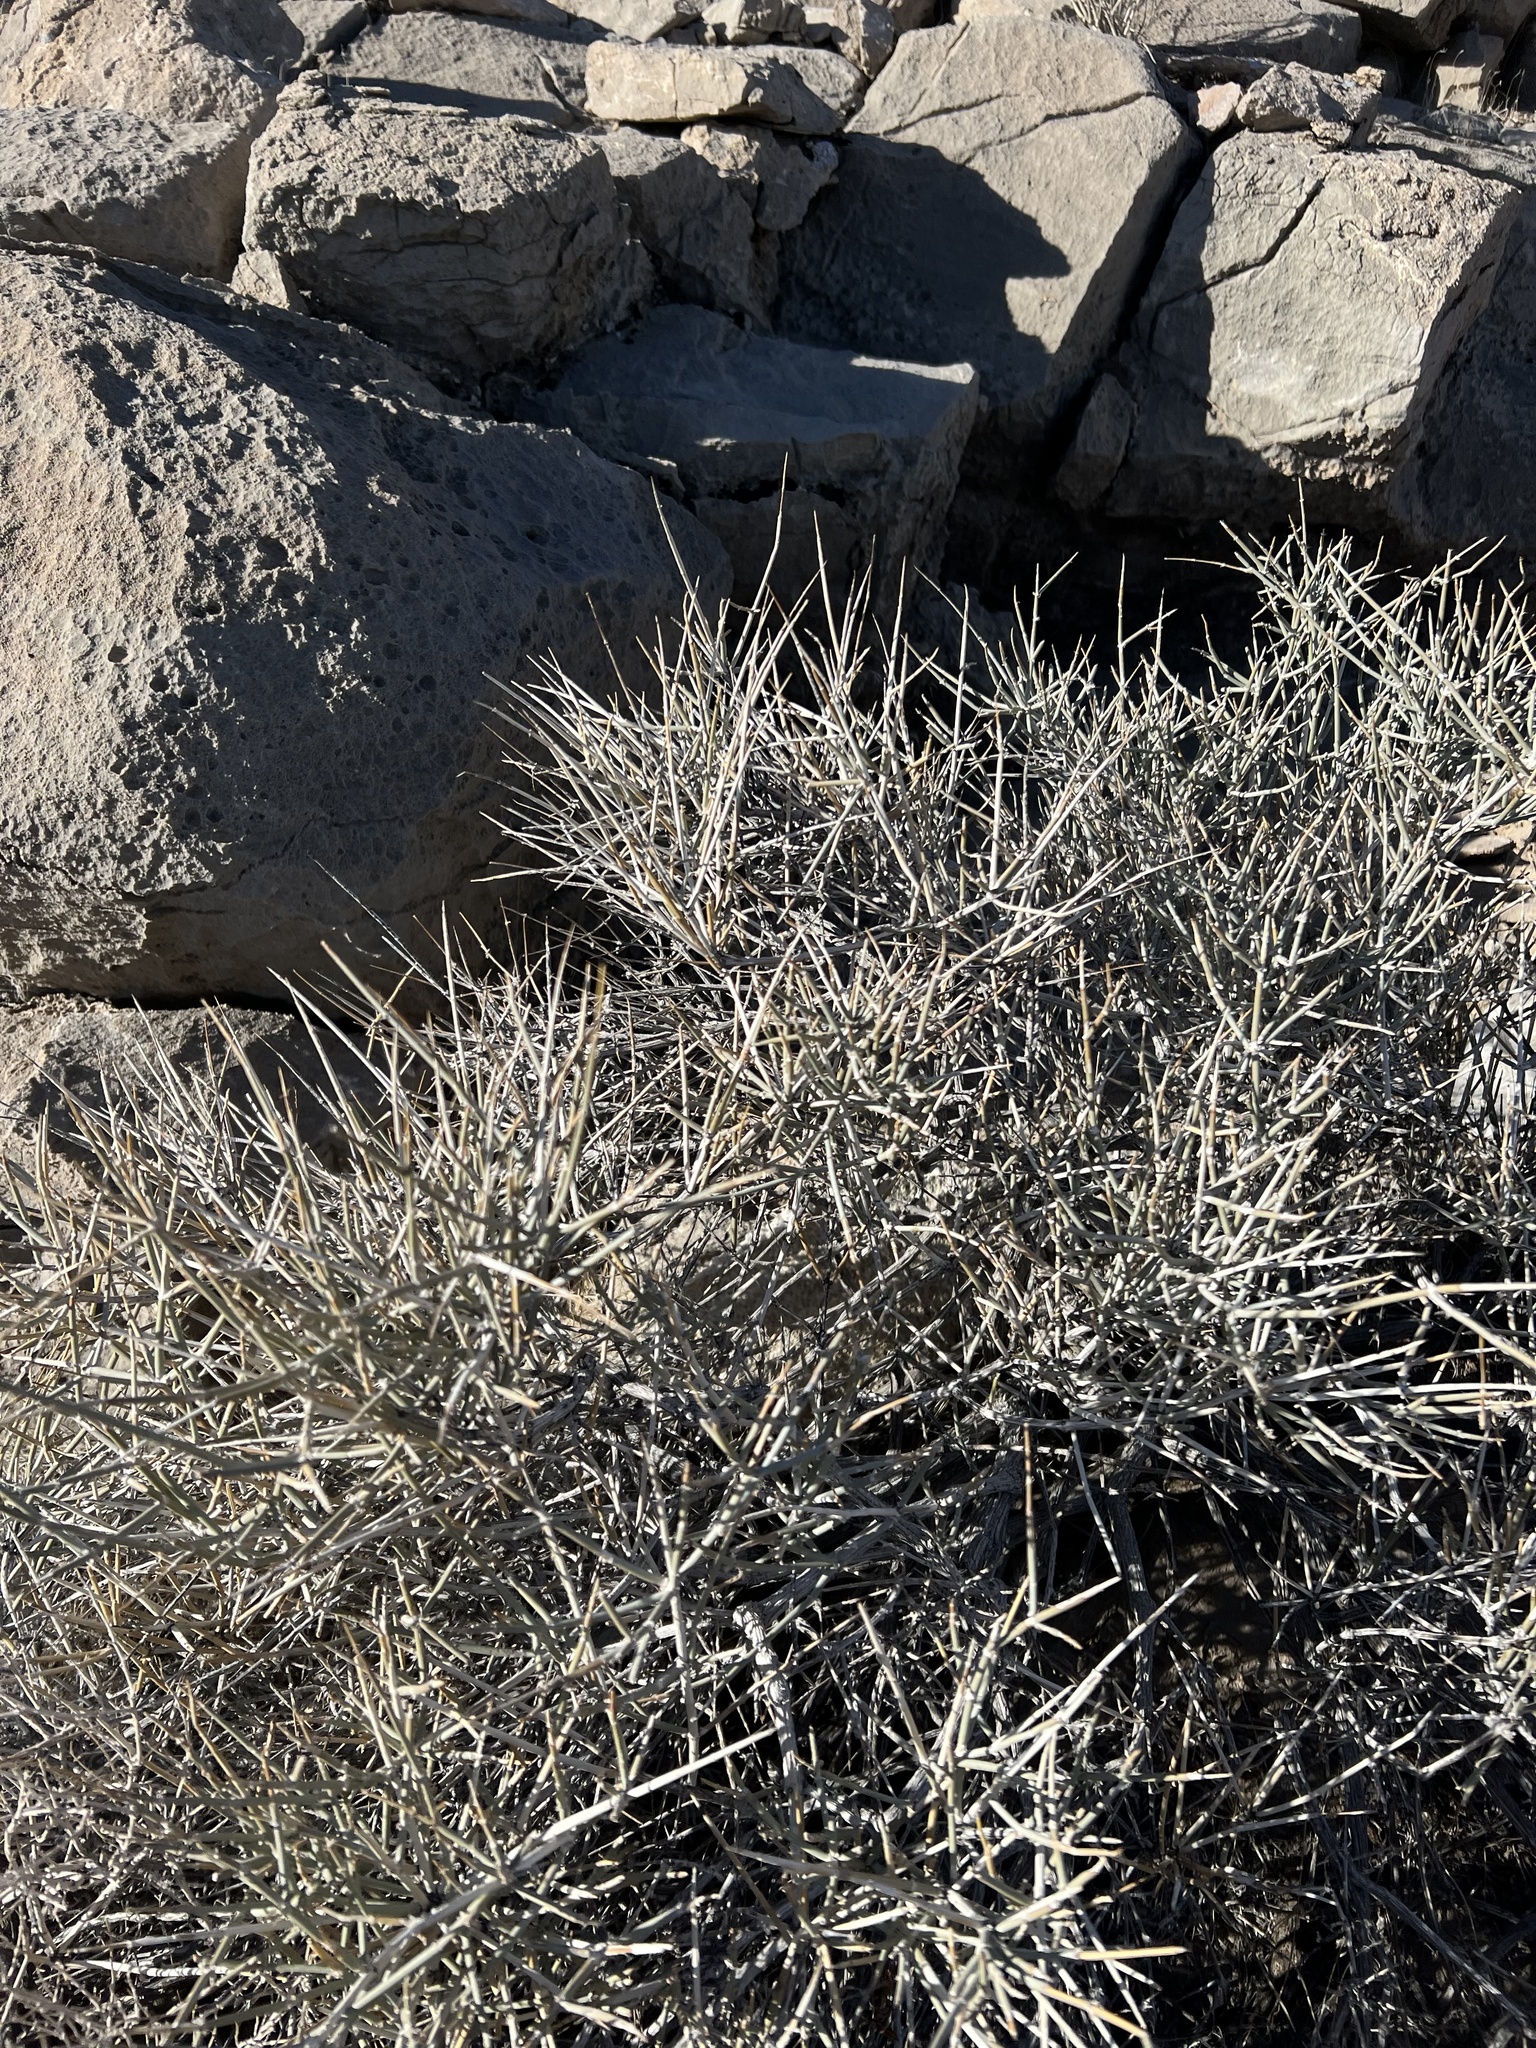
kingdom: Plantae
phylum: Tracheophyta
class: Gnetopsida
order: Ephedrales
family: Ephedraceae
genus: Ephedra
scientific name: Ephedra nevadensis
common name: Gray ephedra
